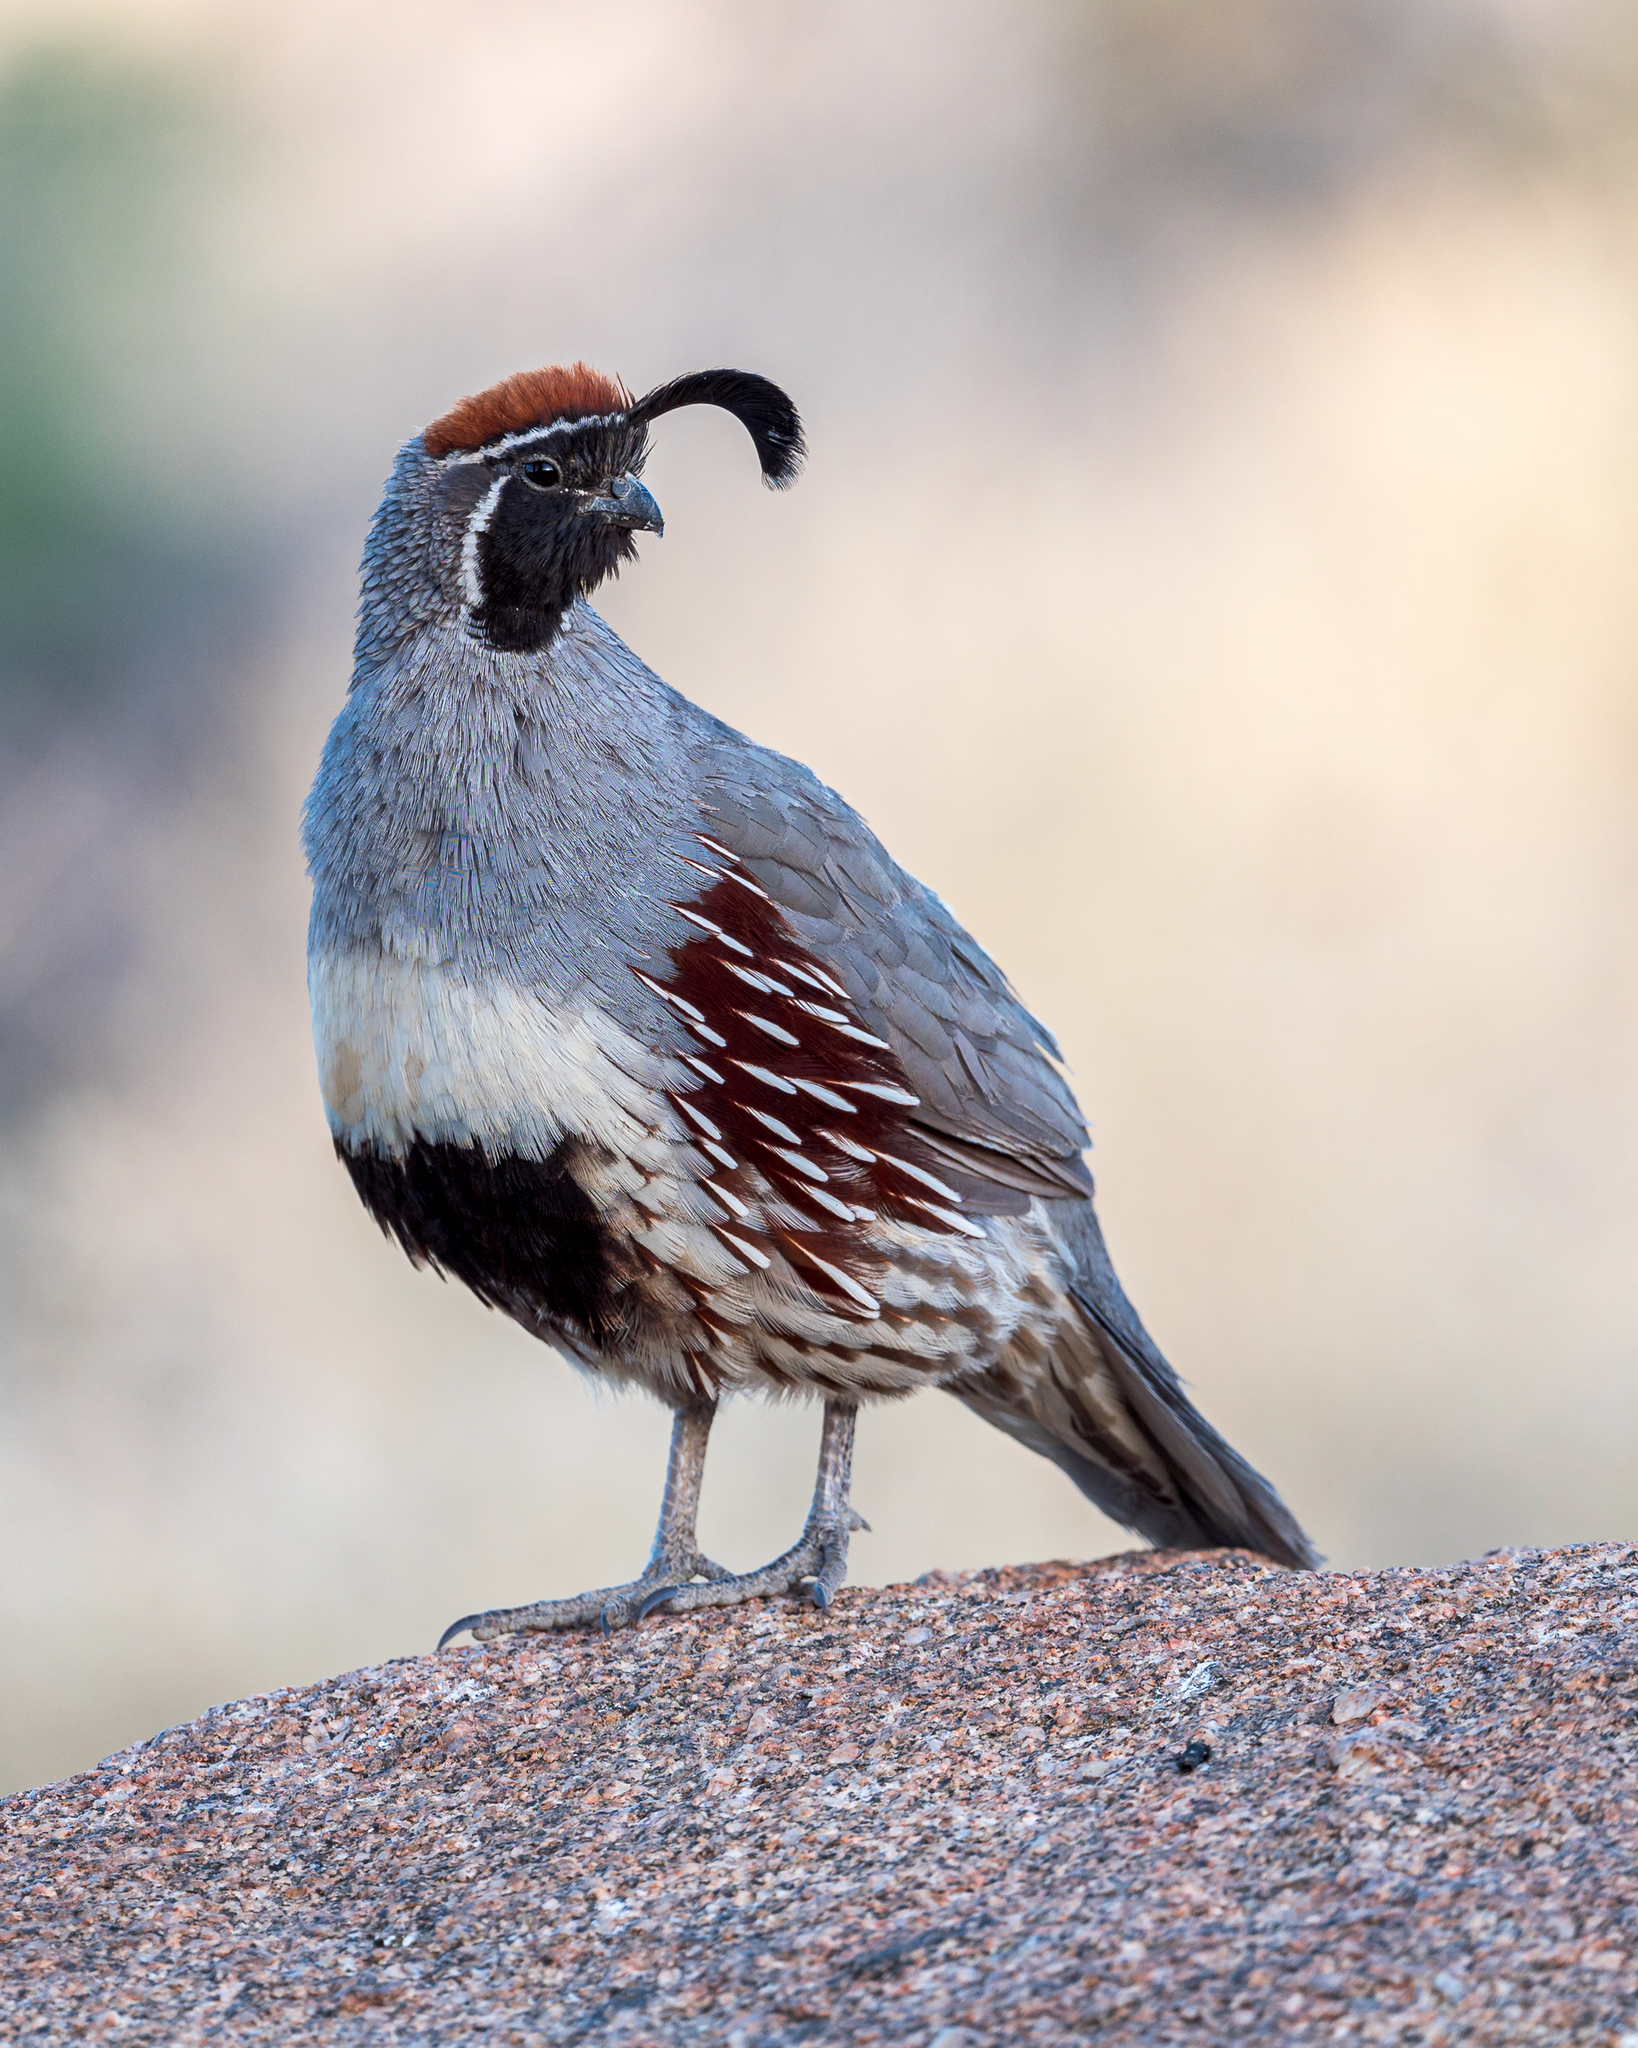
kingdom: Animalia
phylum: Chordata
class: Aves
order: Galliformes
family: Odontophoridae
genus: Callipepla
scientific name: Callipepla gambelii
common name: Gambel's quail
